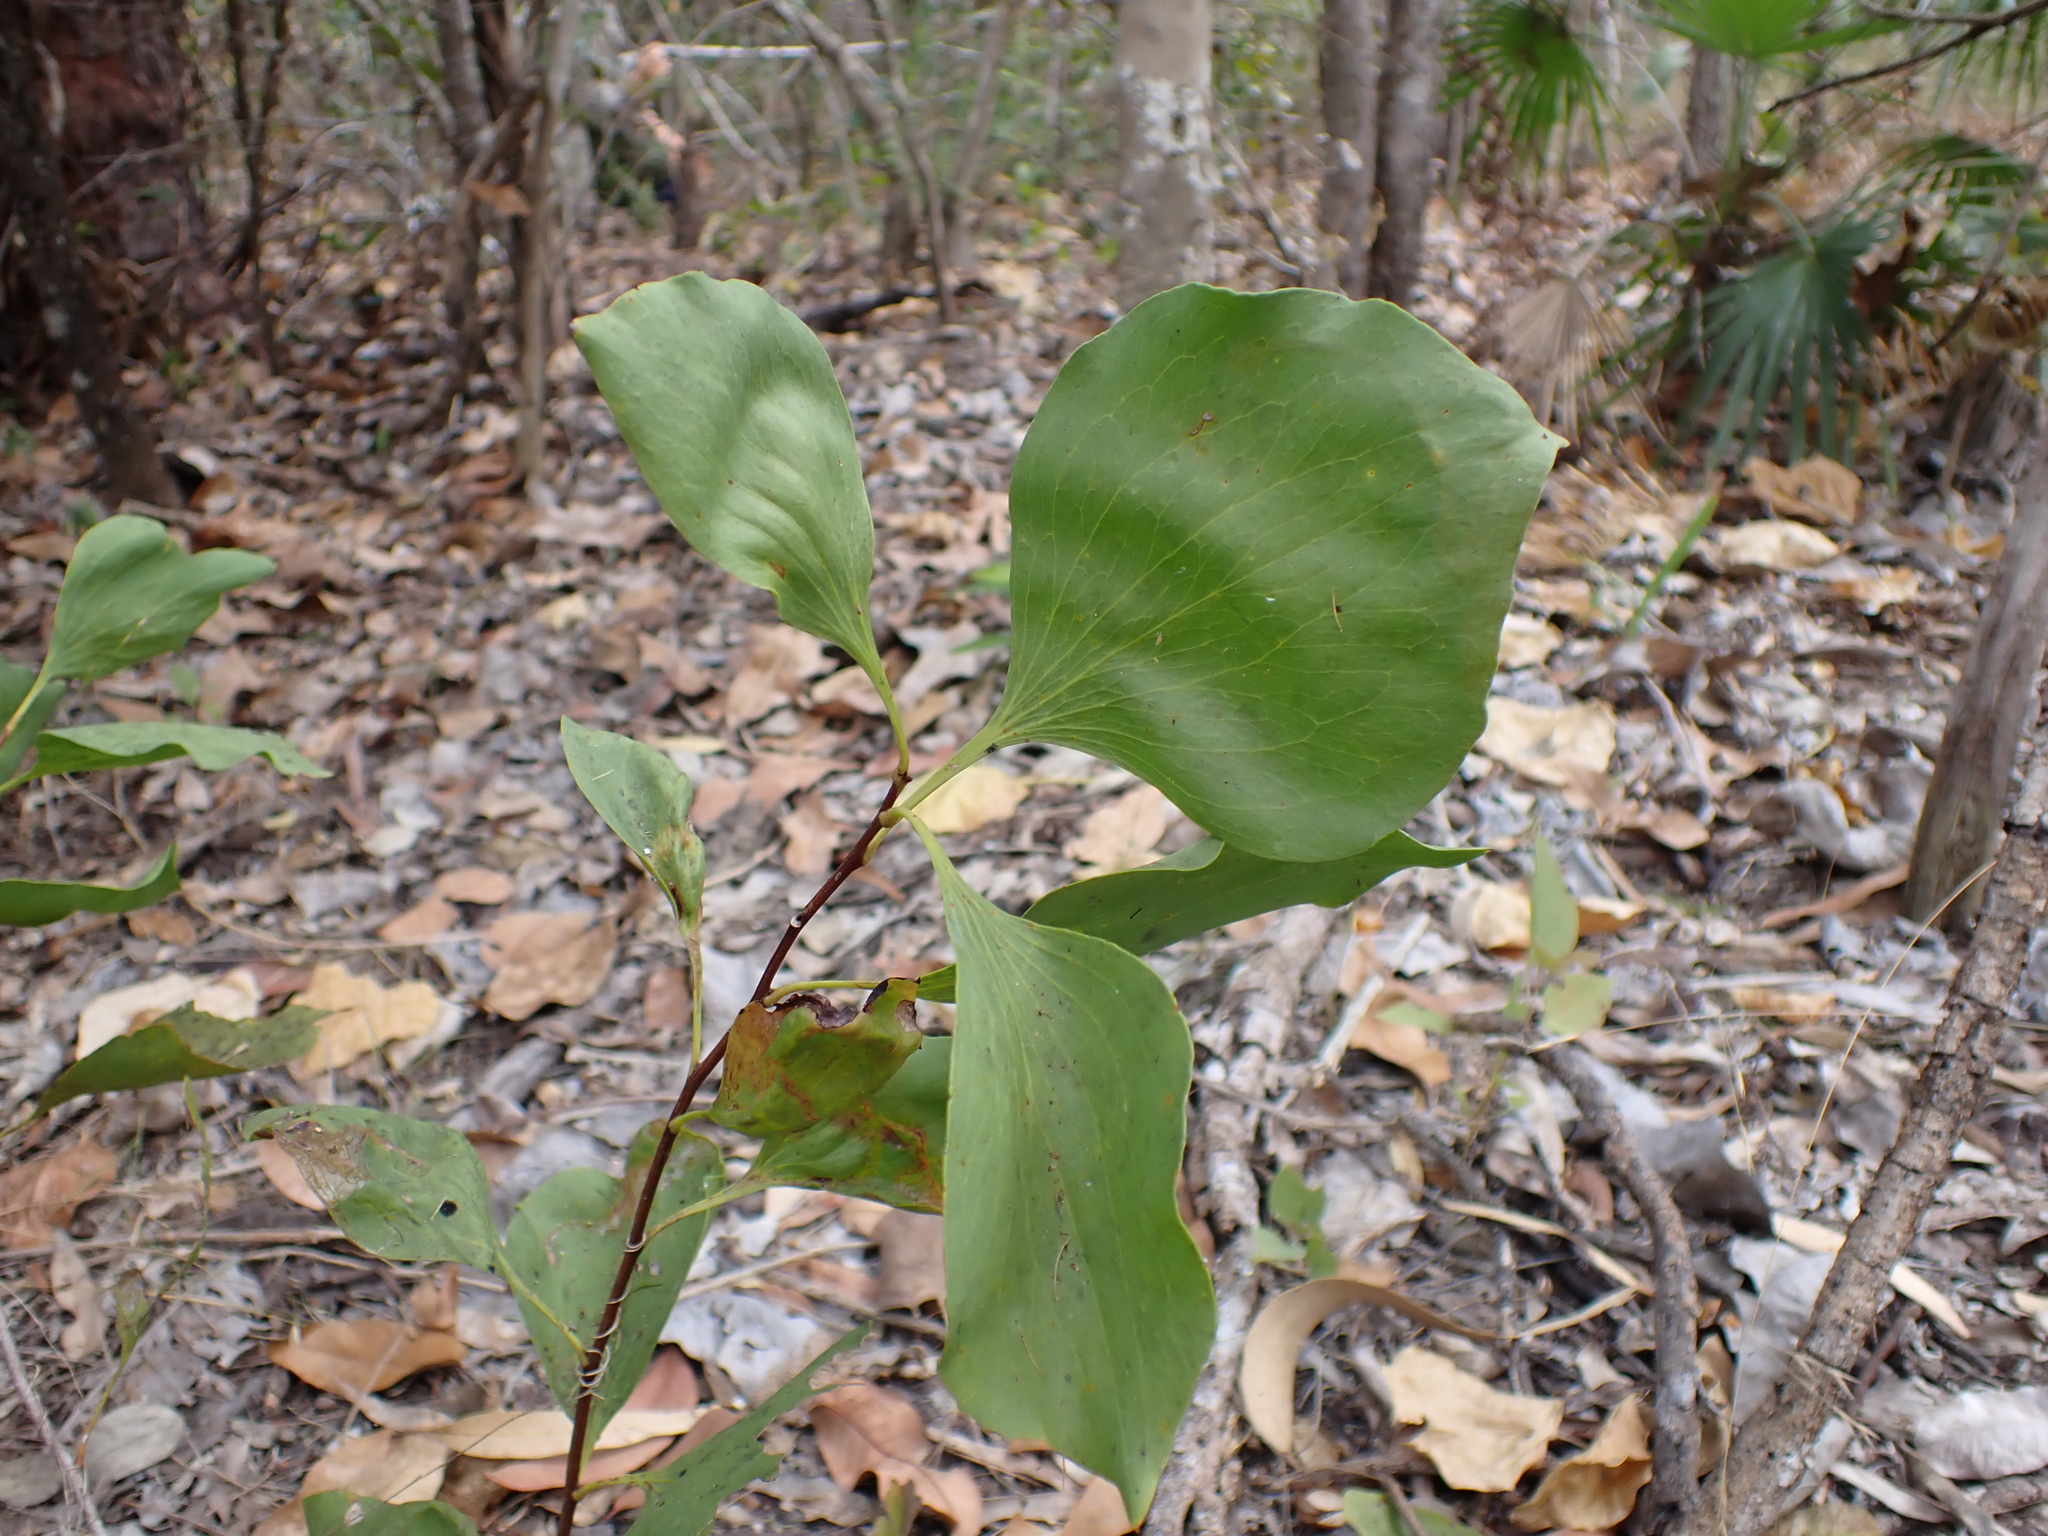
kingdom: Plantae
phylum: Tracheophyta
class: Magnoliopsida
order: Proteales
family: Proteaceae
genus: Stenocarpus
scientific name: Stenocarpus acacioides
